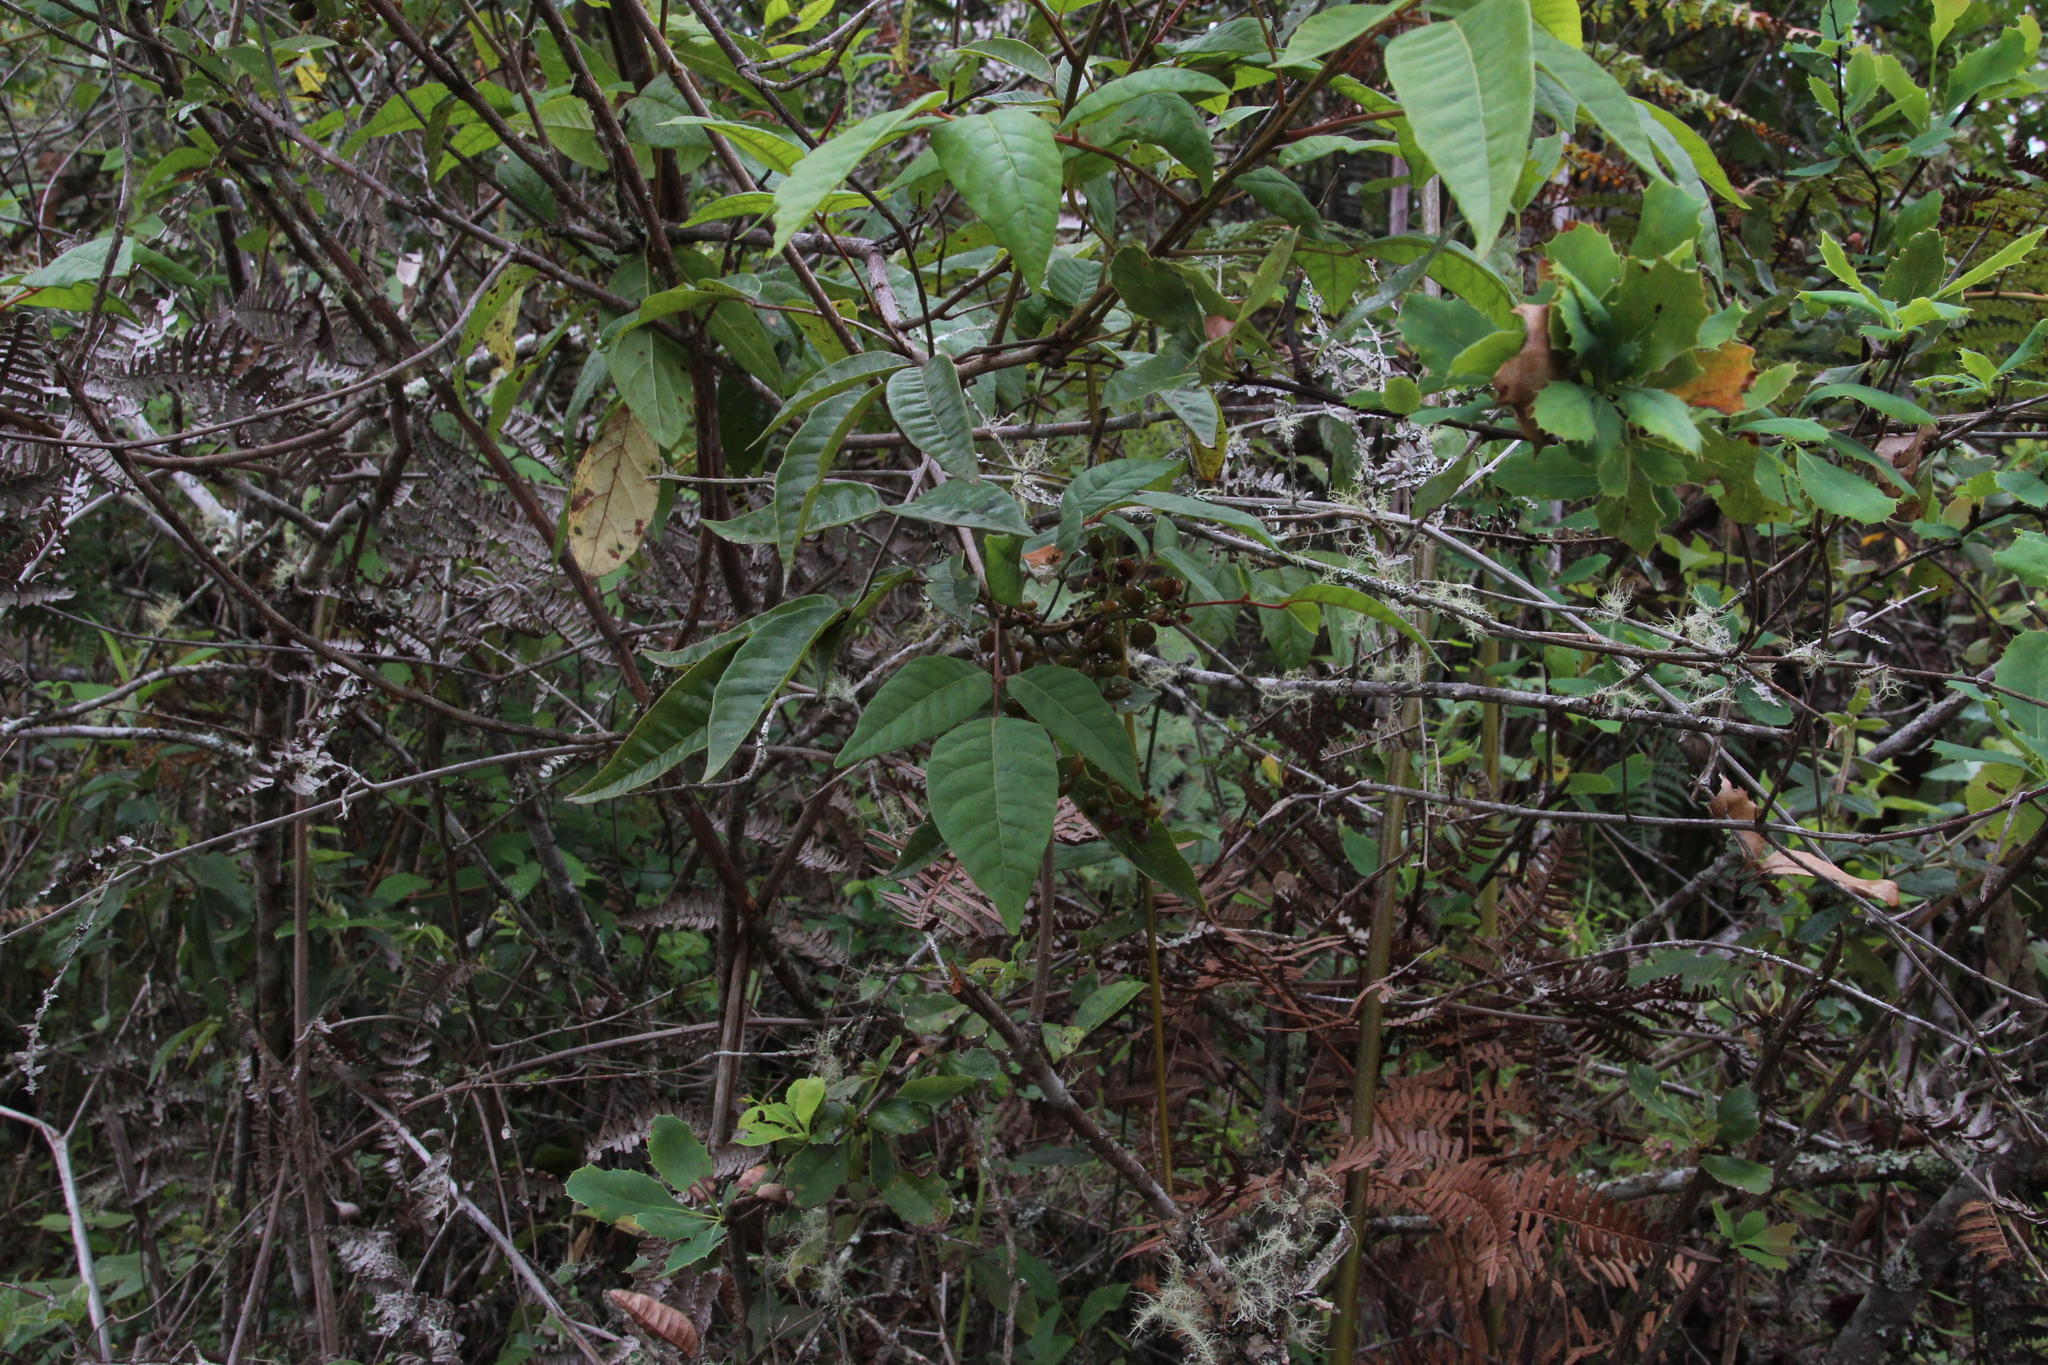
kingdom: Plantae
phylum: Tracheophyta
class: Magnoliopsida
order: Sapindales
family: Anacardiaceae
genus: Mauria
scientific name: Mauria ferruginea
